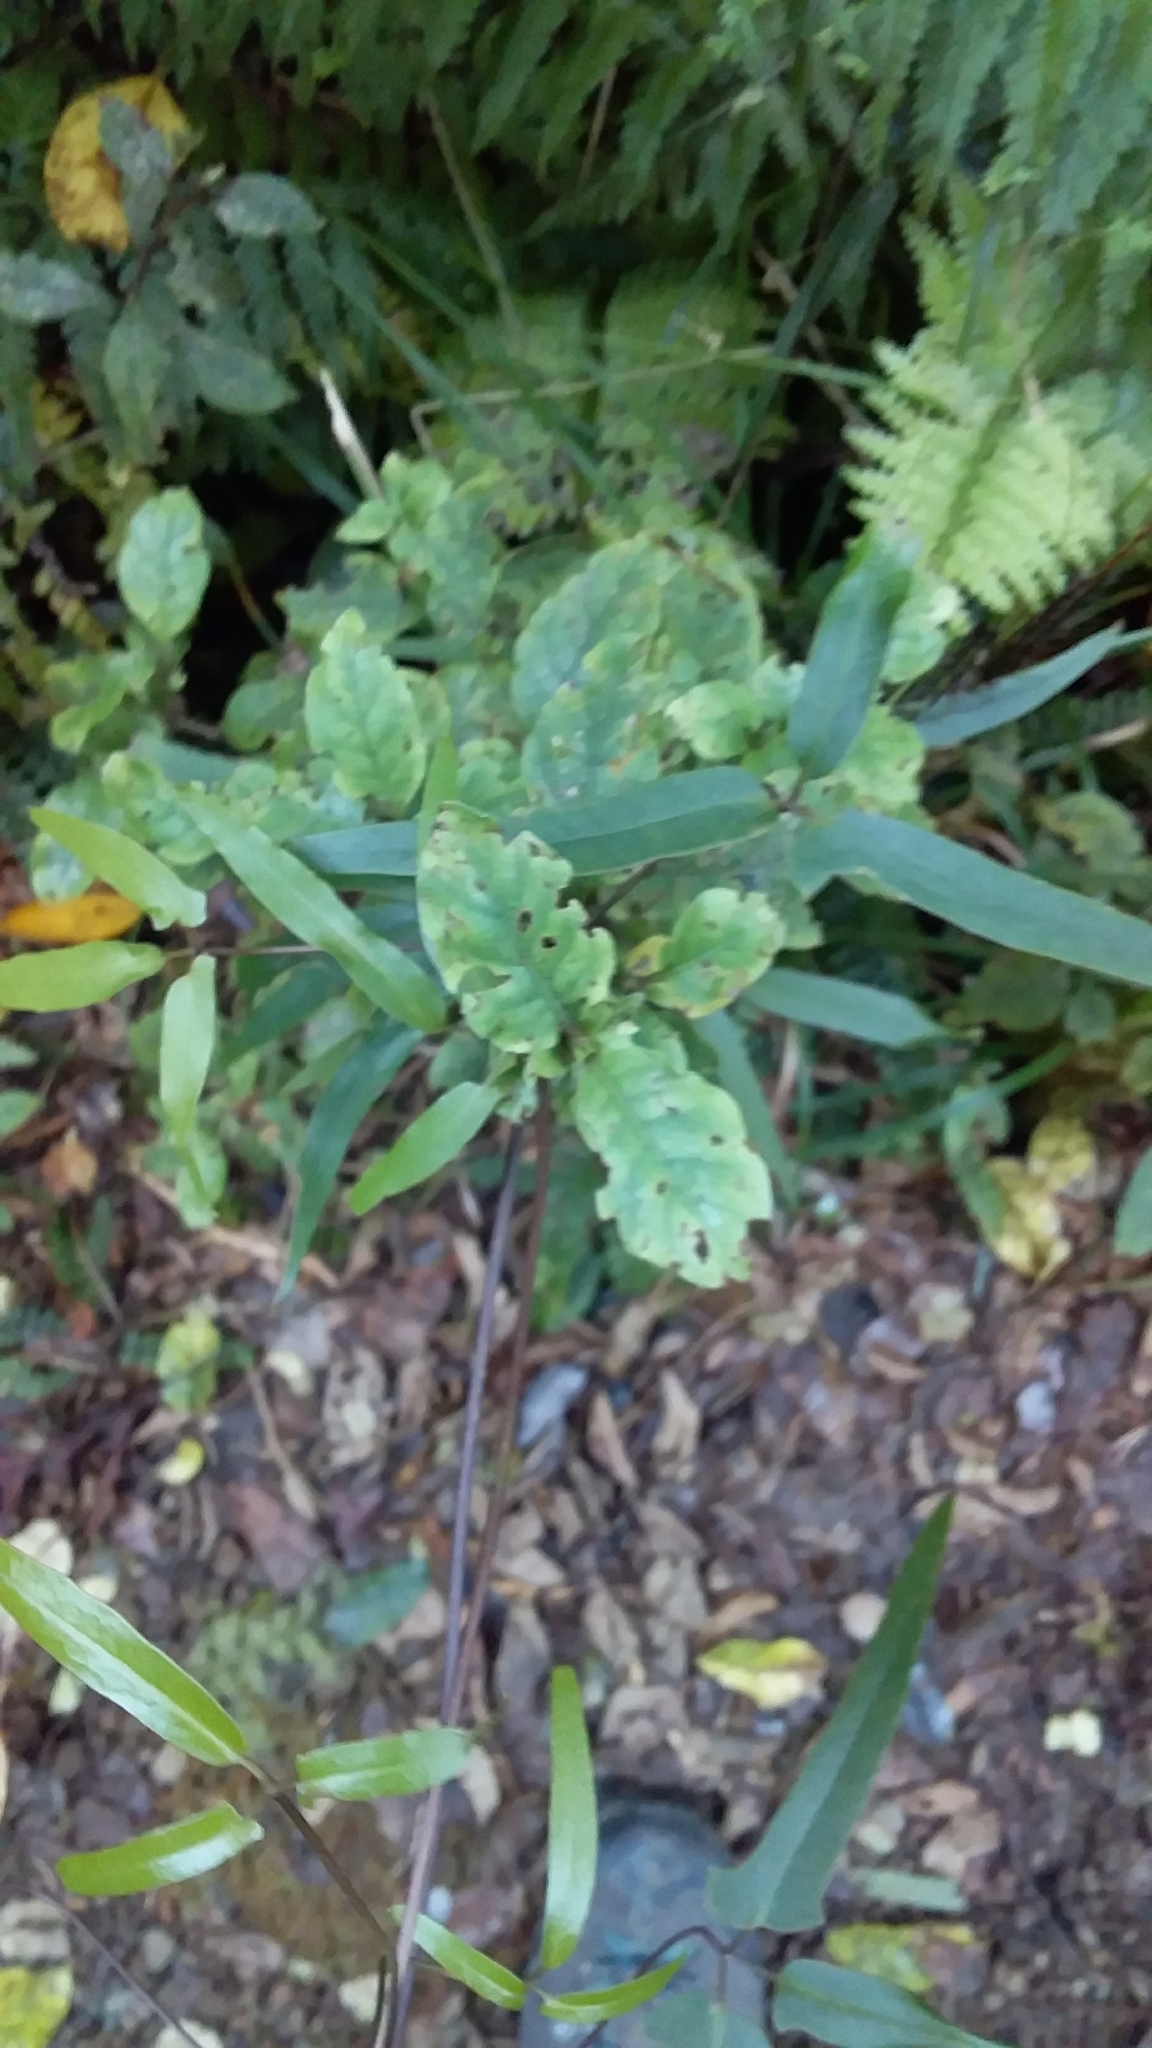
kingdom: Plantae
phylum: Tracheophyta
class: Magnoliopsida
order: Ranunculales
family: Ranunculaceae
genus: Clematis
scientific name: Clematis paniculata
